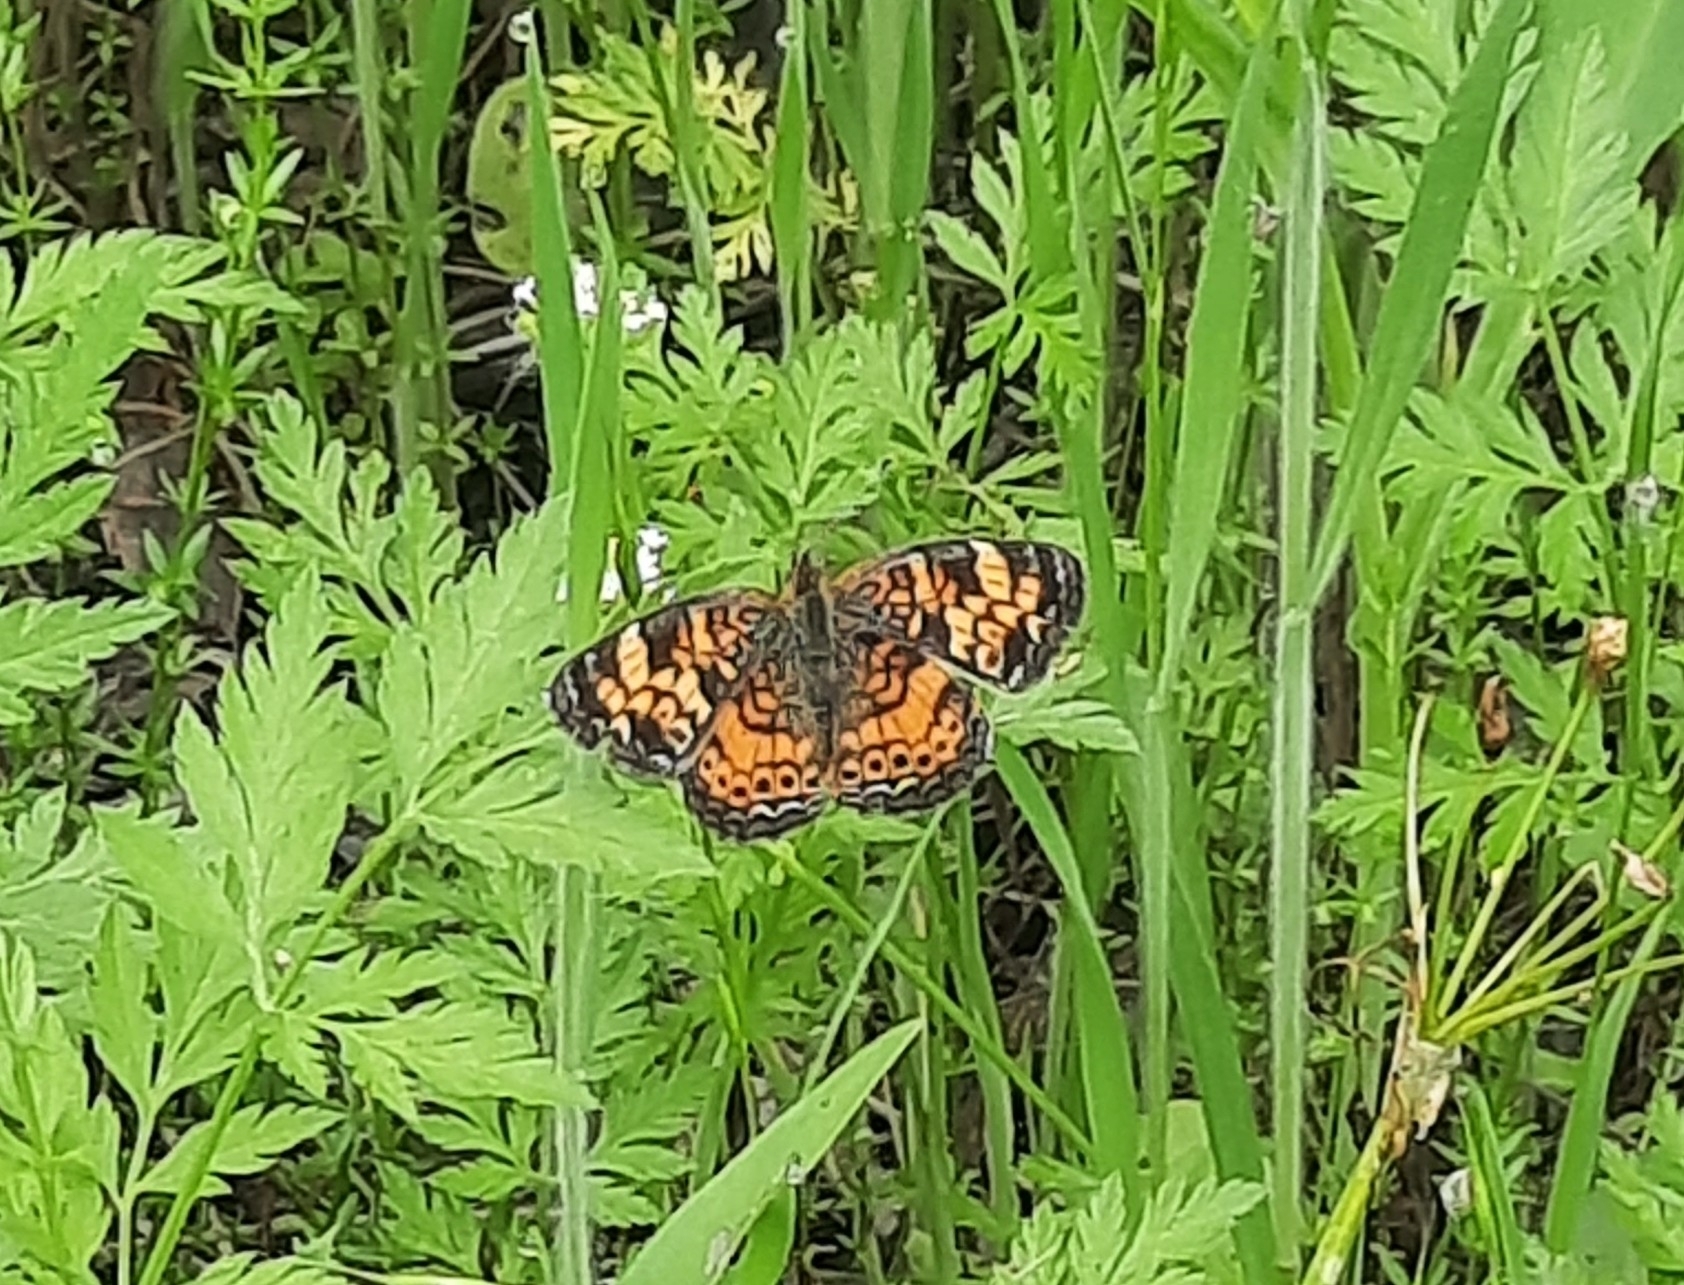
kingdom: Animalia
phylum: Arthropoda
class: Insecta
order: Lepidoptera
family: Nymphalidae
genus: Phyciodes
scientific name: Phyciodes tharos
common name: Pearl crescent
